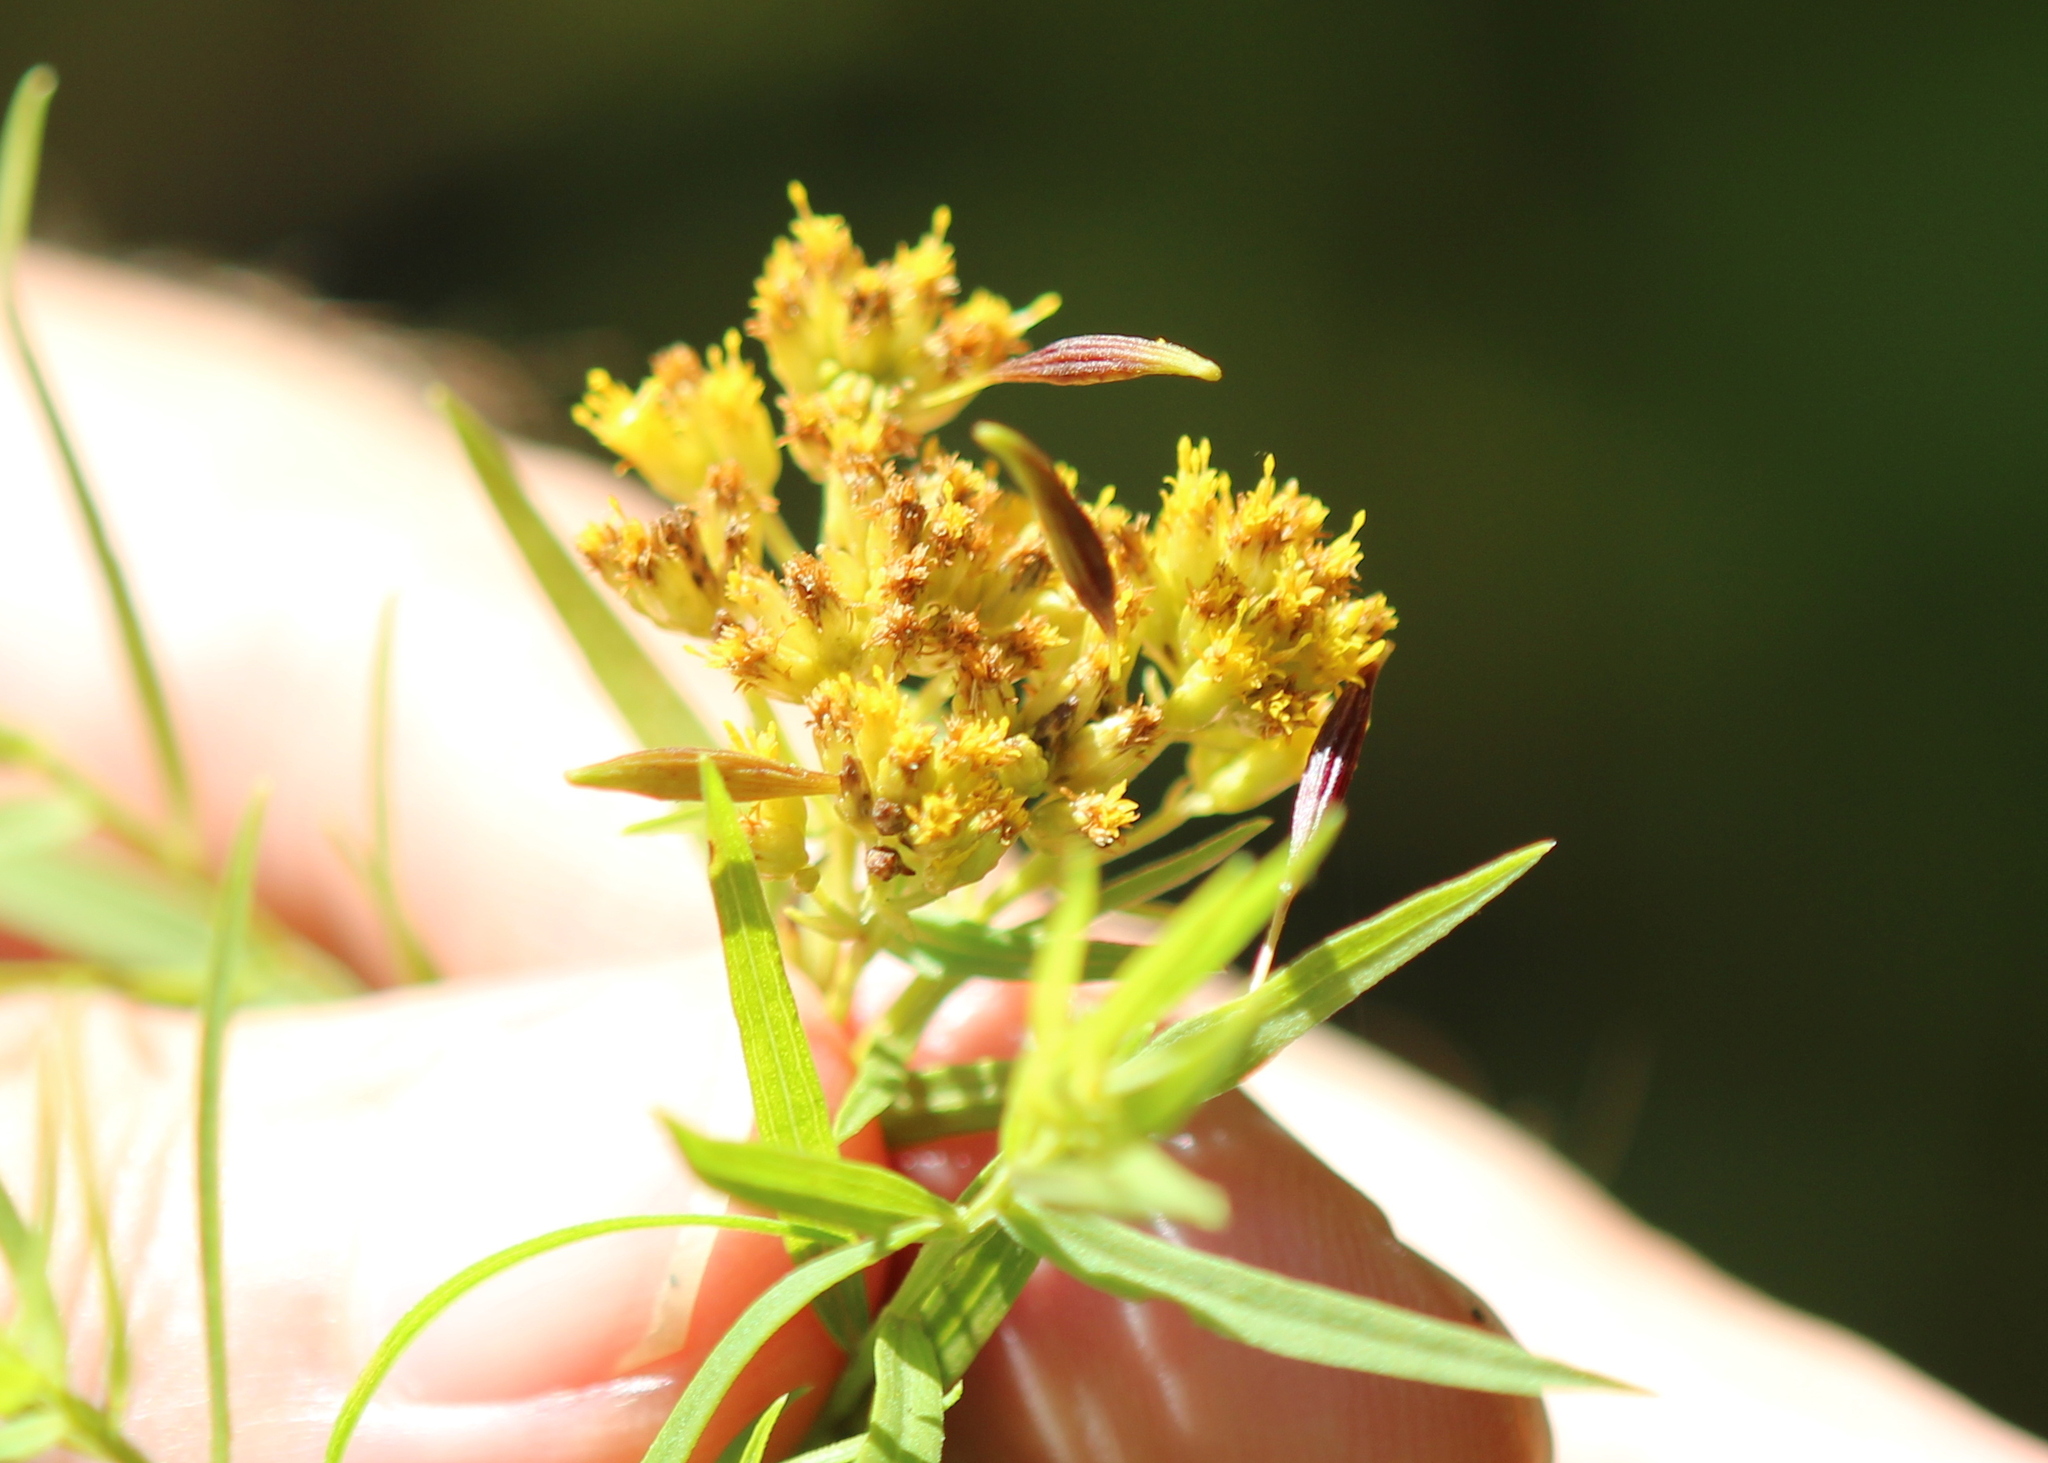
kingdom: Animalia
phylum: Arthropoda
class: Insecta
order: Diptera
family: Cecidomyiidae
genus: Rhopalomyia
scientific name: Rhopalomyia pedicellata
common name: Goldentop pedicellate gall midge
